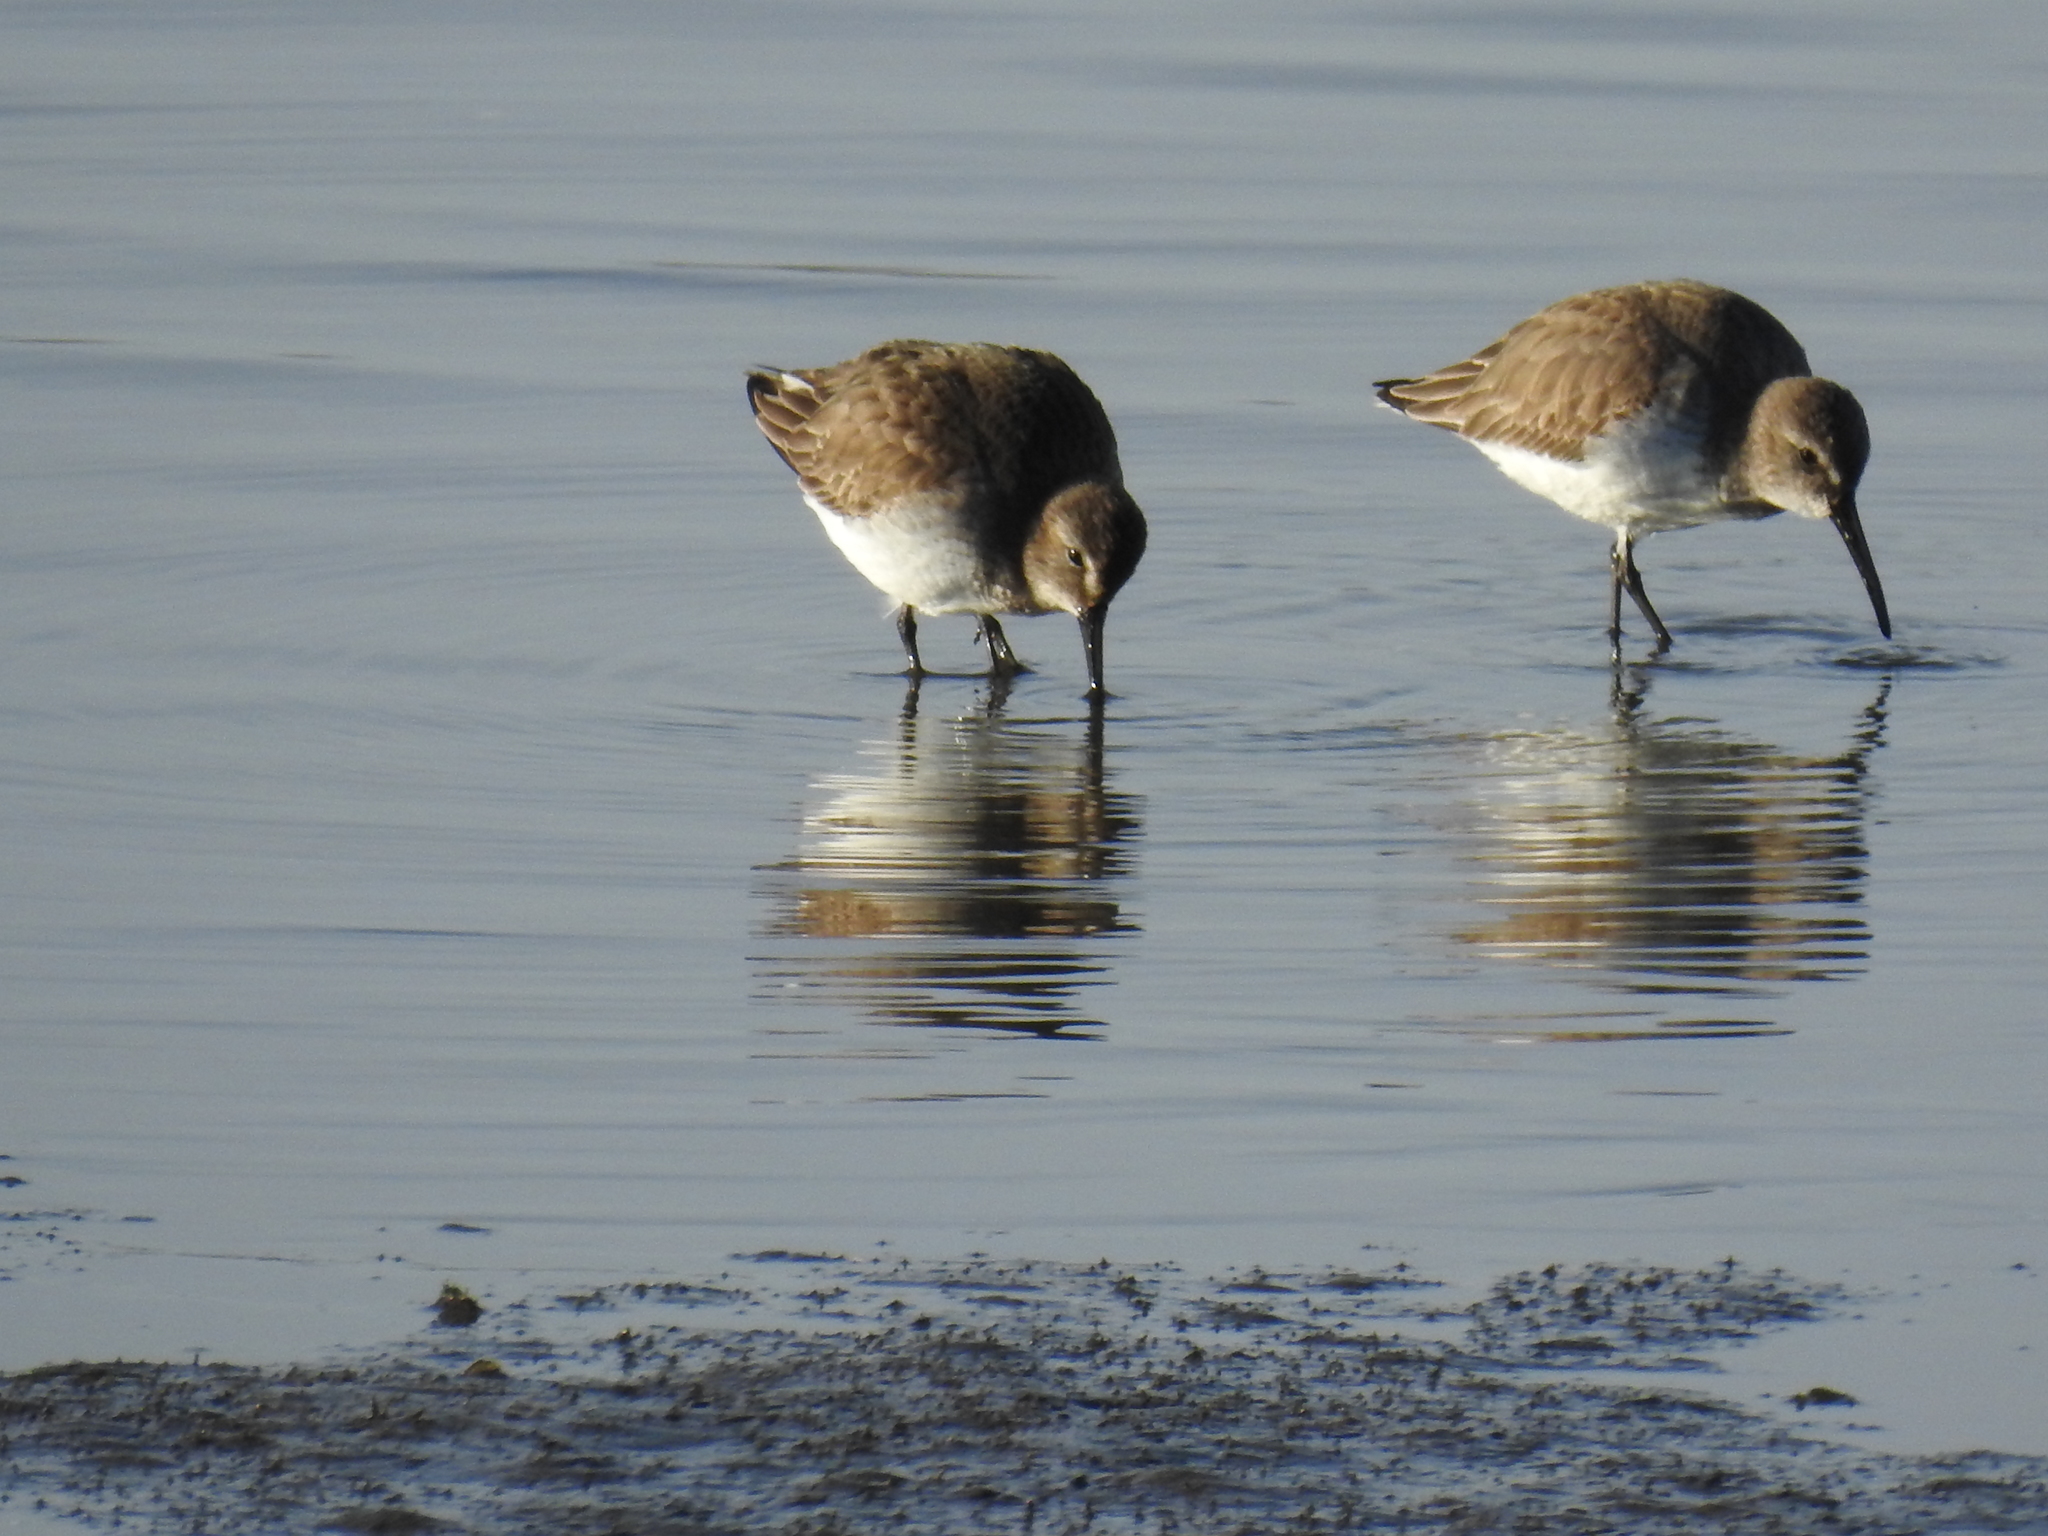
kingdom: Animalia
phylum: Chordata
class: Aves
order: Charadriiformes
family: Scolopacidae
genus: Calidris
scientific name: Calidris alpina
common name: Dunlin
